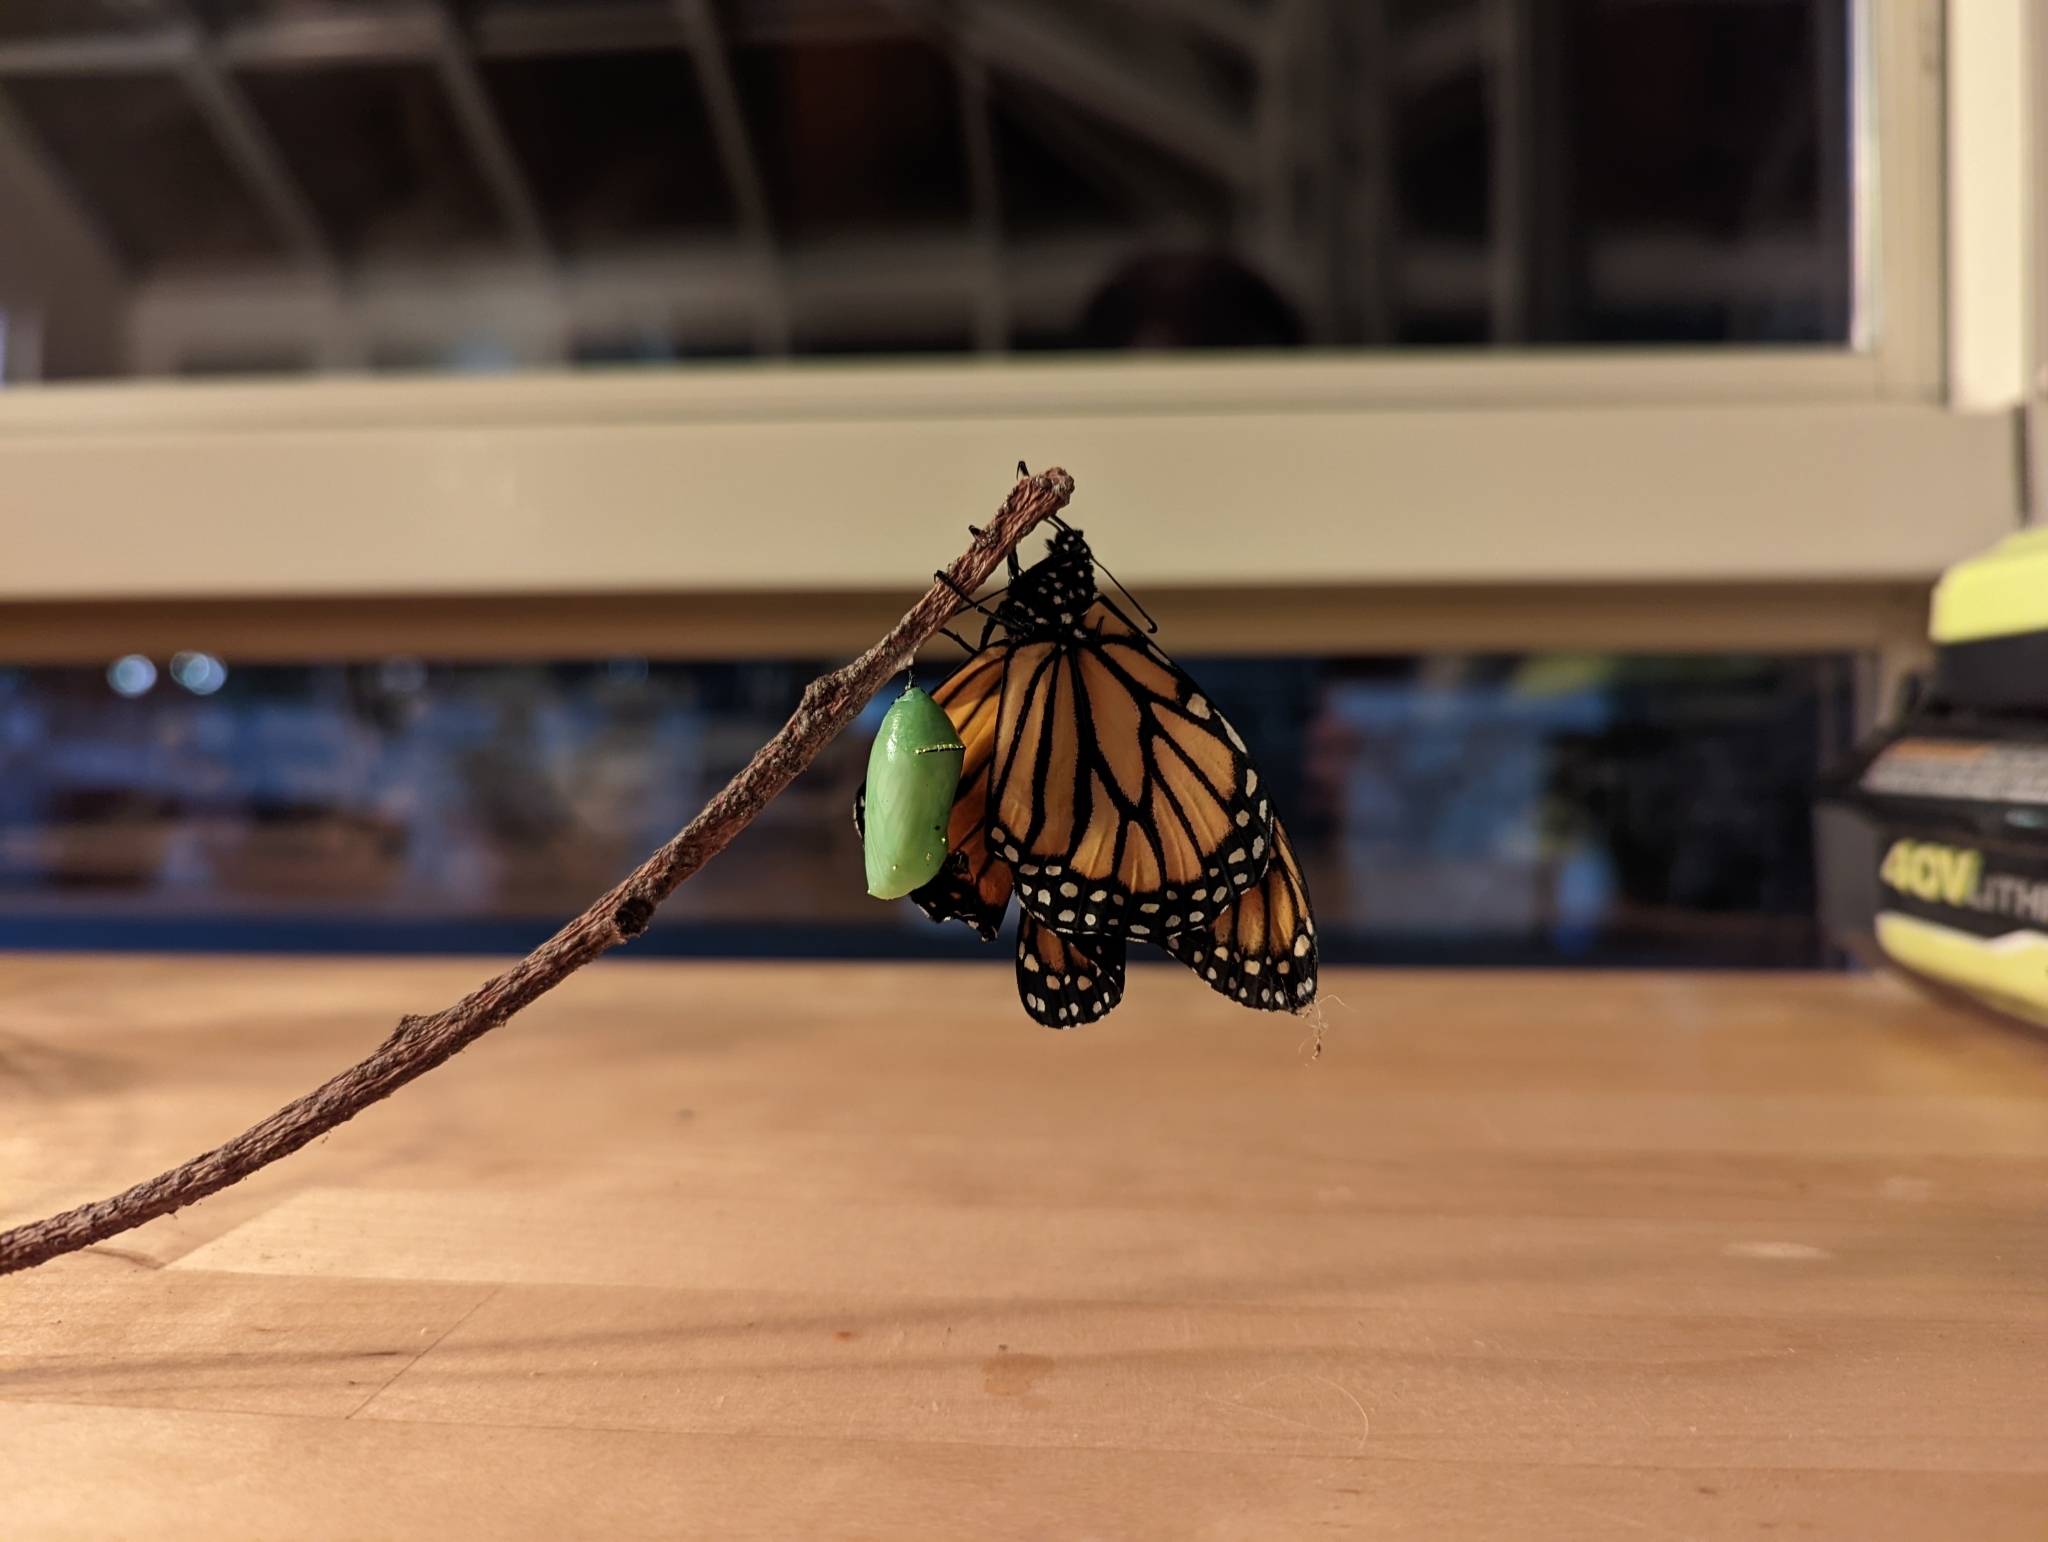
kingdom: Animalia
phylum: Arthropoda
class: Insecta
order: Lepidoptera
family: Nymphalidae
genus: Danaus
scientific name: Danaus plexippus
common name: Monarch
